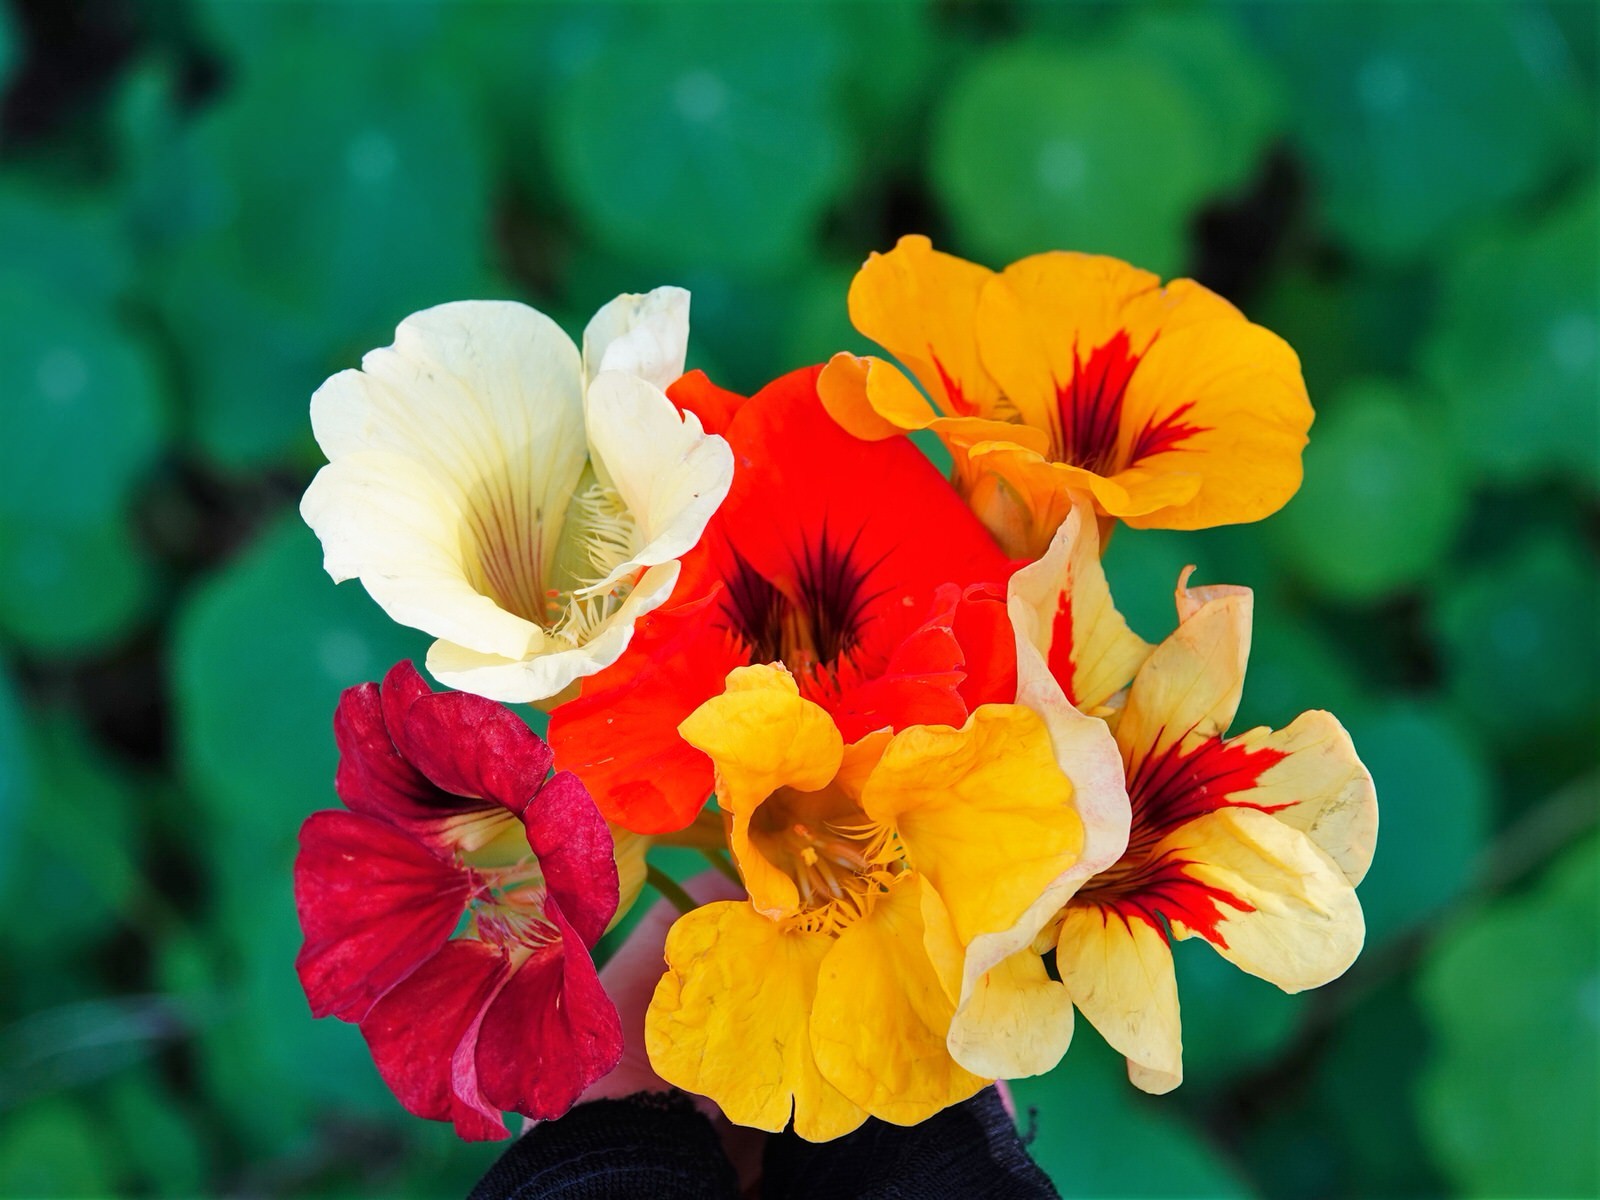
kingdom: Plantae
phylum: Tracheophyta
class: Magnoliopsida
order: Brassicales
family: Tropaeolaceae
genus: Tropaeolum
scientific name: Tropaeolum majus
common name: Nasturtium
